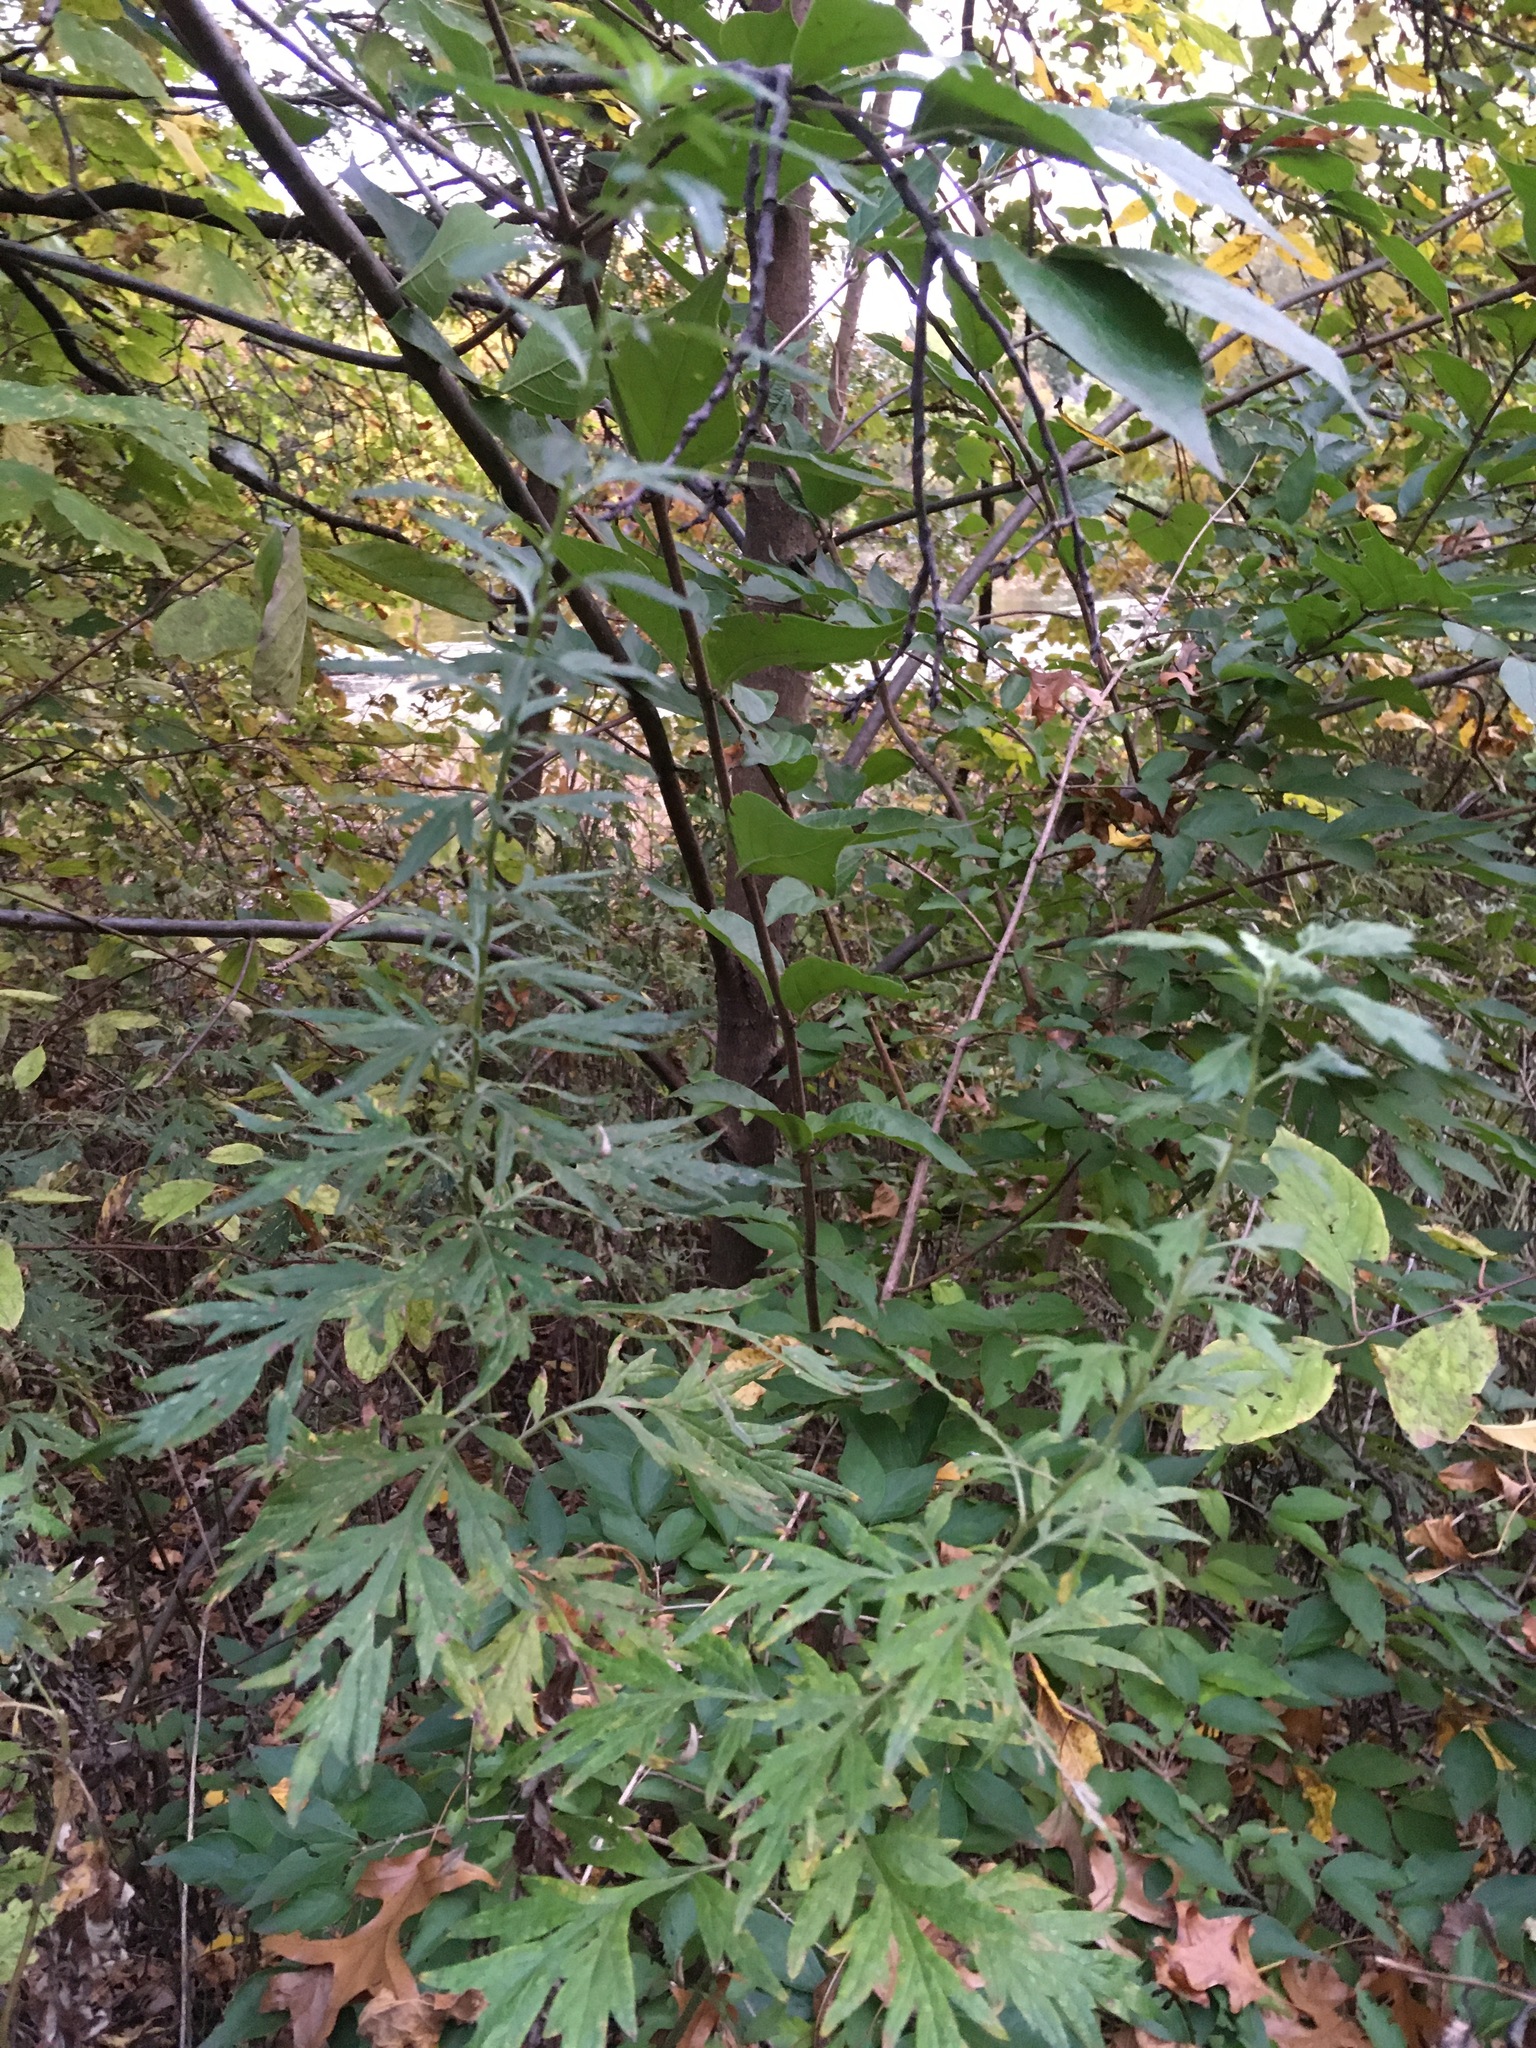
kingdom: Plantae
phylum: Tracheophyta
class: Magnoliopsida
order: Asterales
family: Asteraceae
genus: Artemisia
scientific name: Artemisia vulgaris
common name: Mugwort
